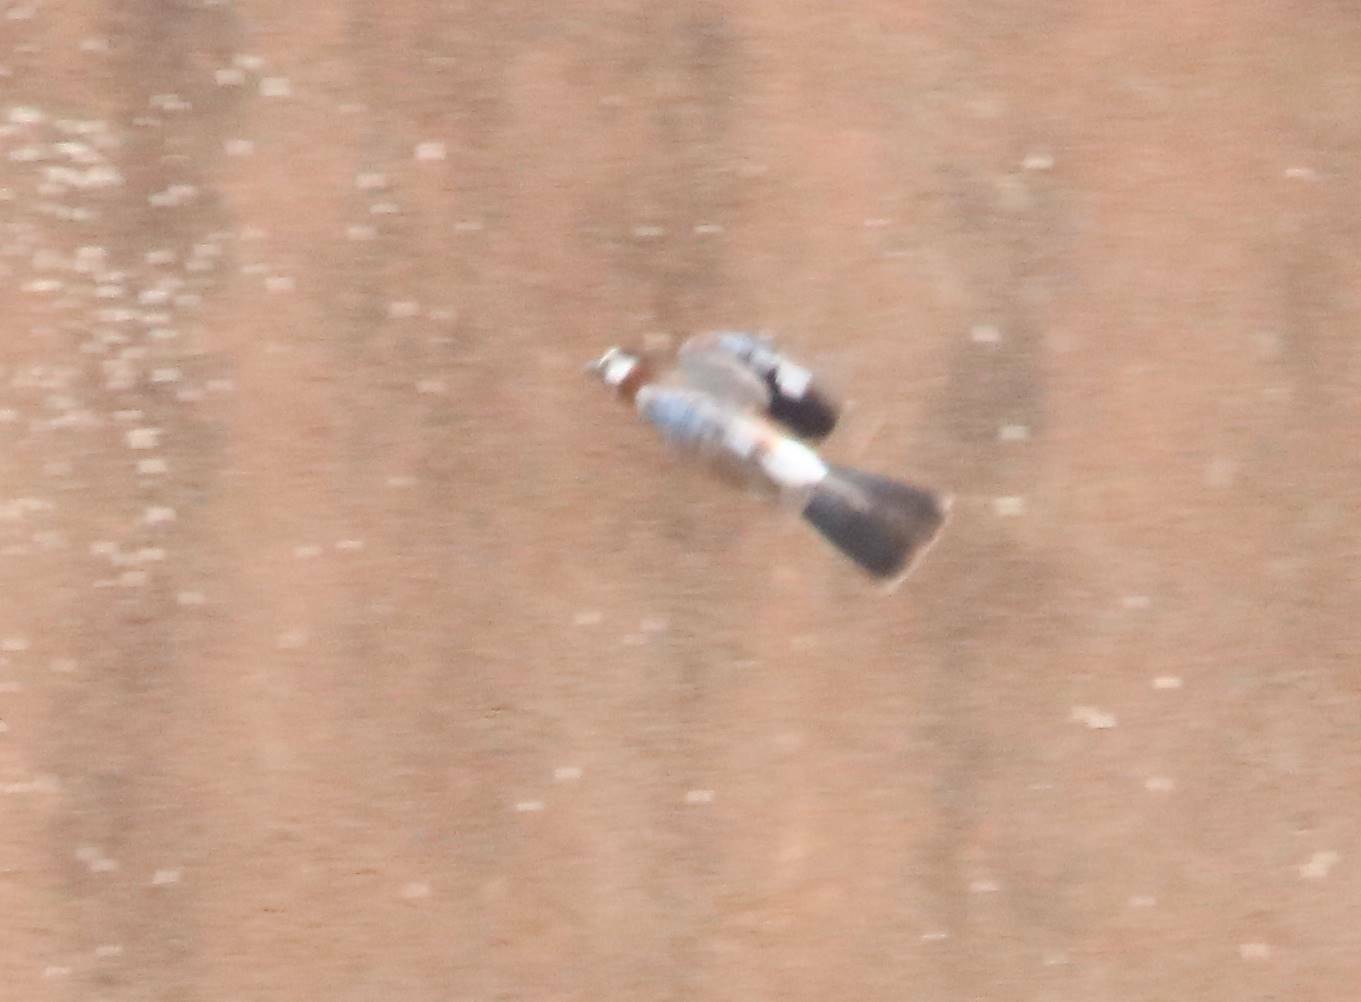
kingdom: Animalia
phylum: Chordata
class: Aves
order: Passeriformes
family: Corvidae
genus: Garrulus
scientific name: Garrulus glandarius
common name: Eurasian jay
